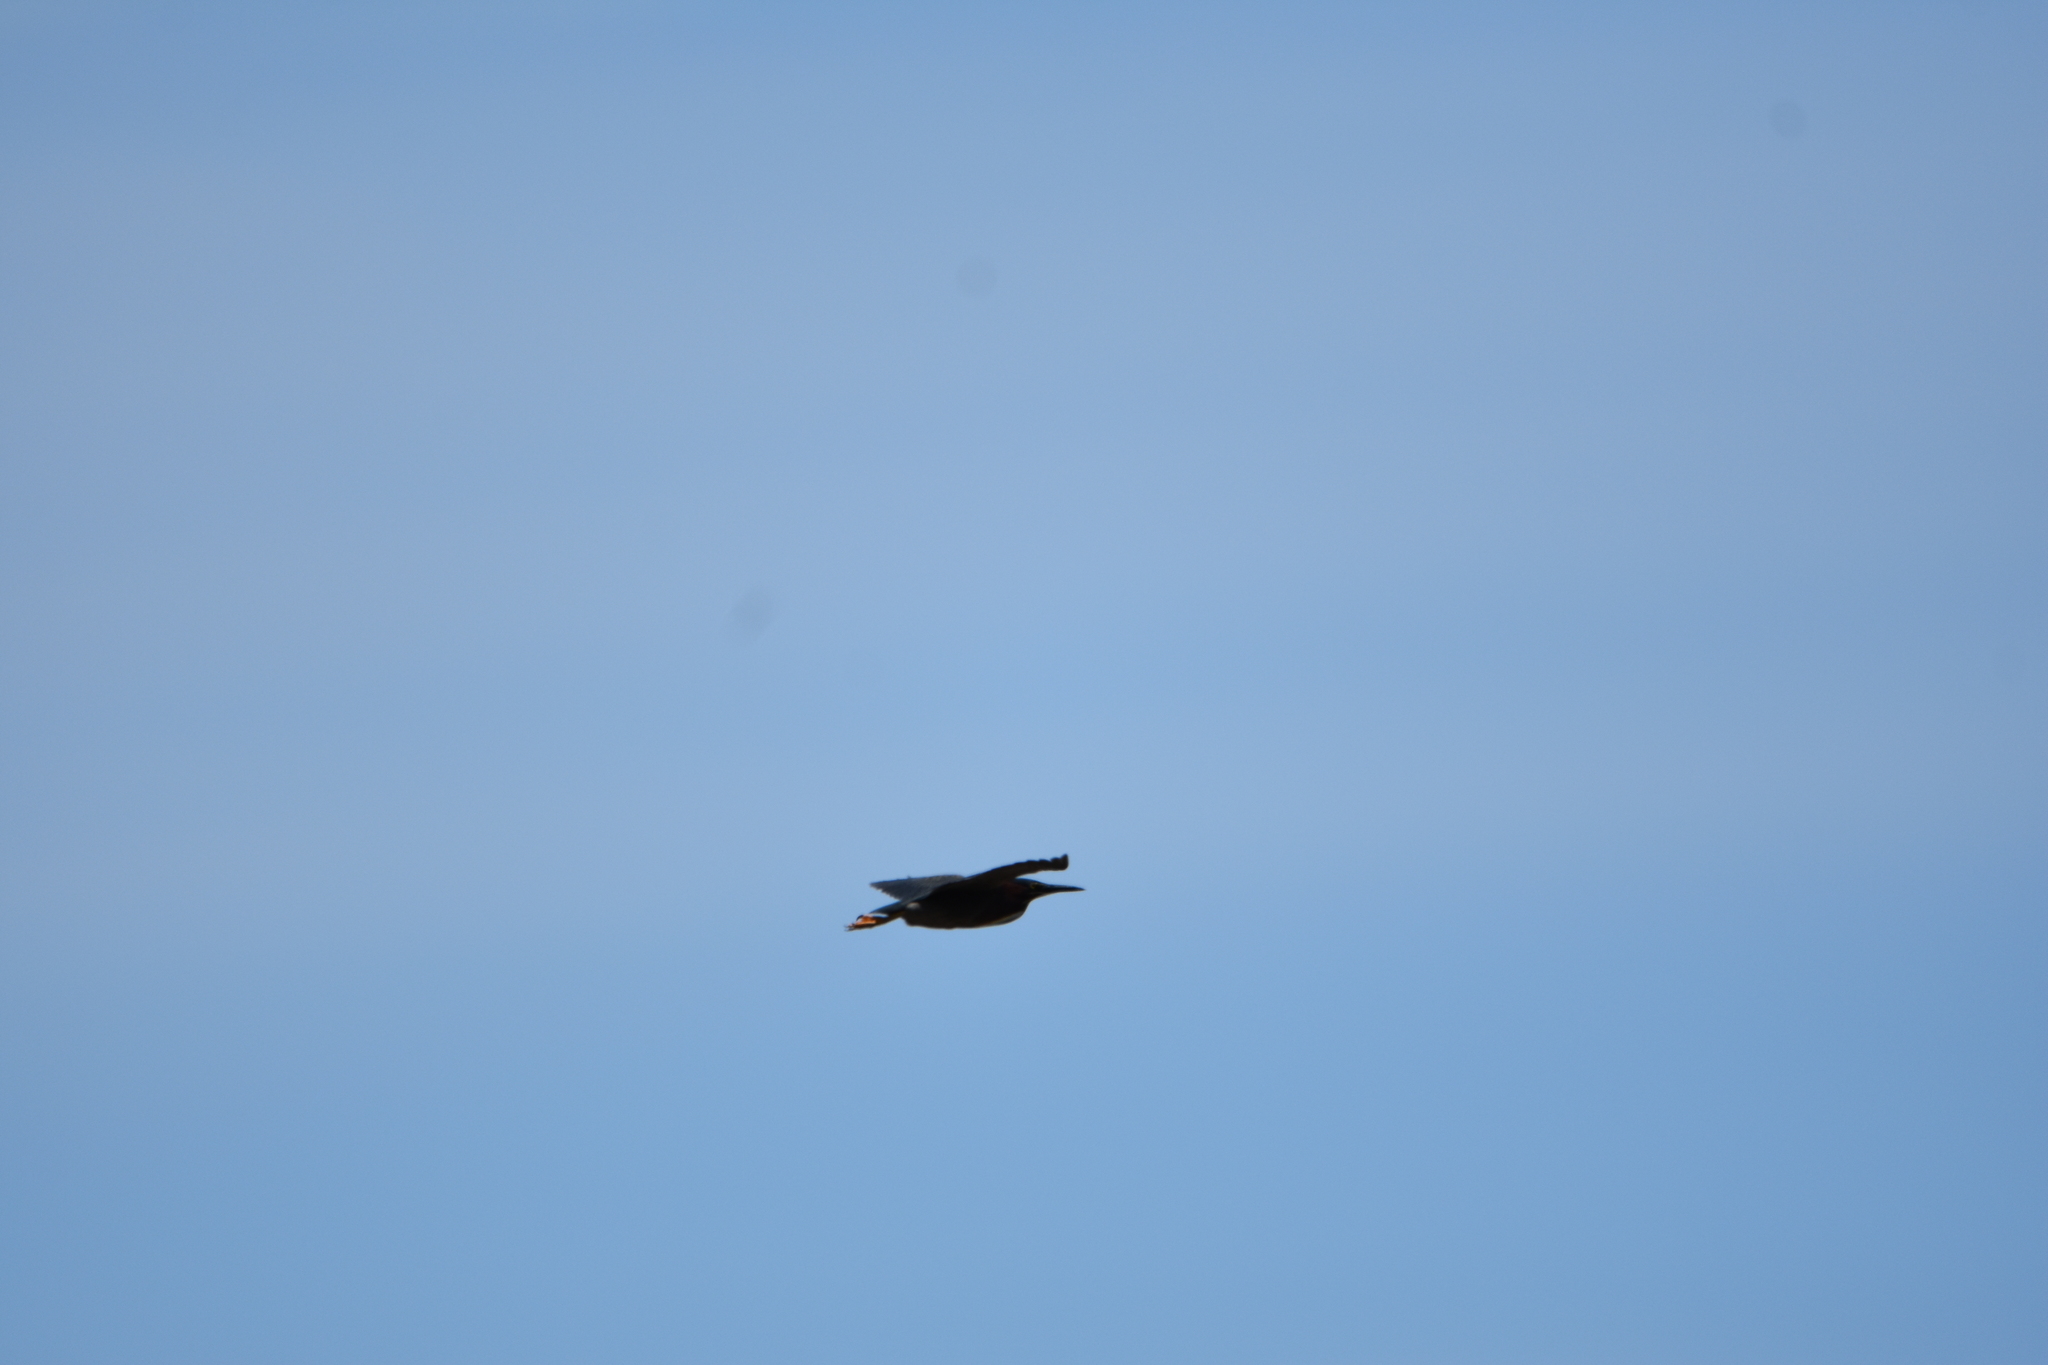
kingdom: Animalia
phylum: Chordata
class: Aves
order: Pelecaniformes
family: Ardeidae
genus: Butorides
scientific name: Butorides virescens
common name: Green heron
